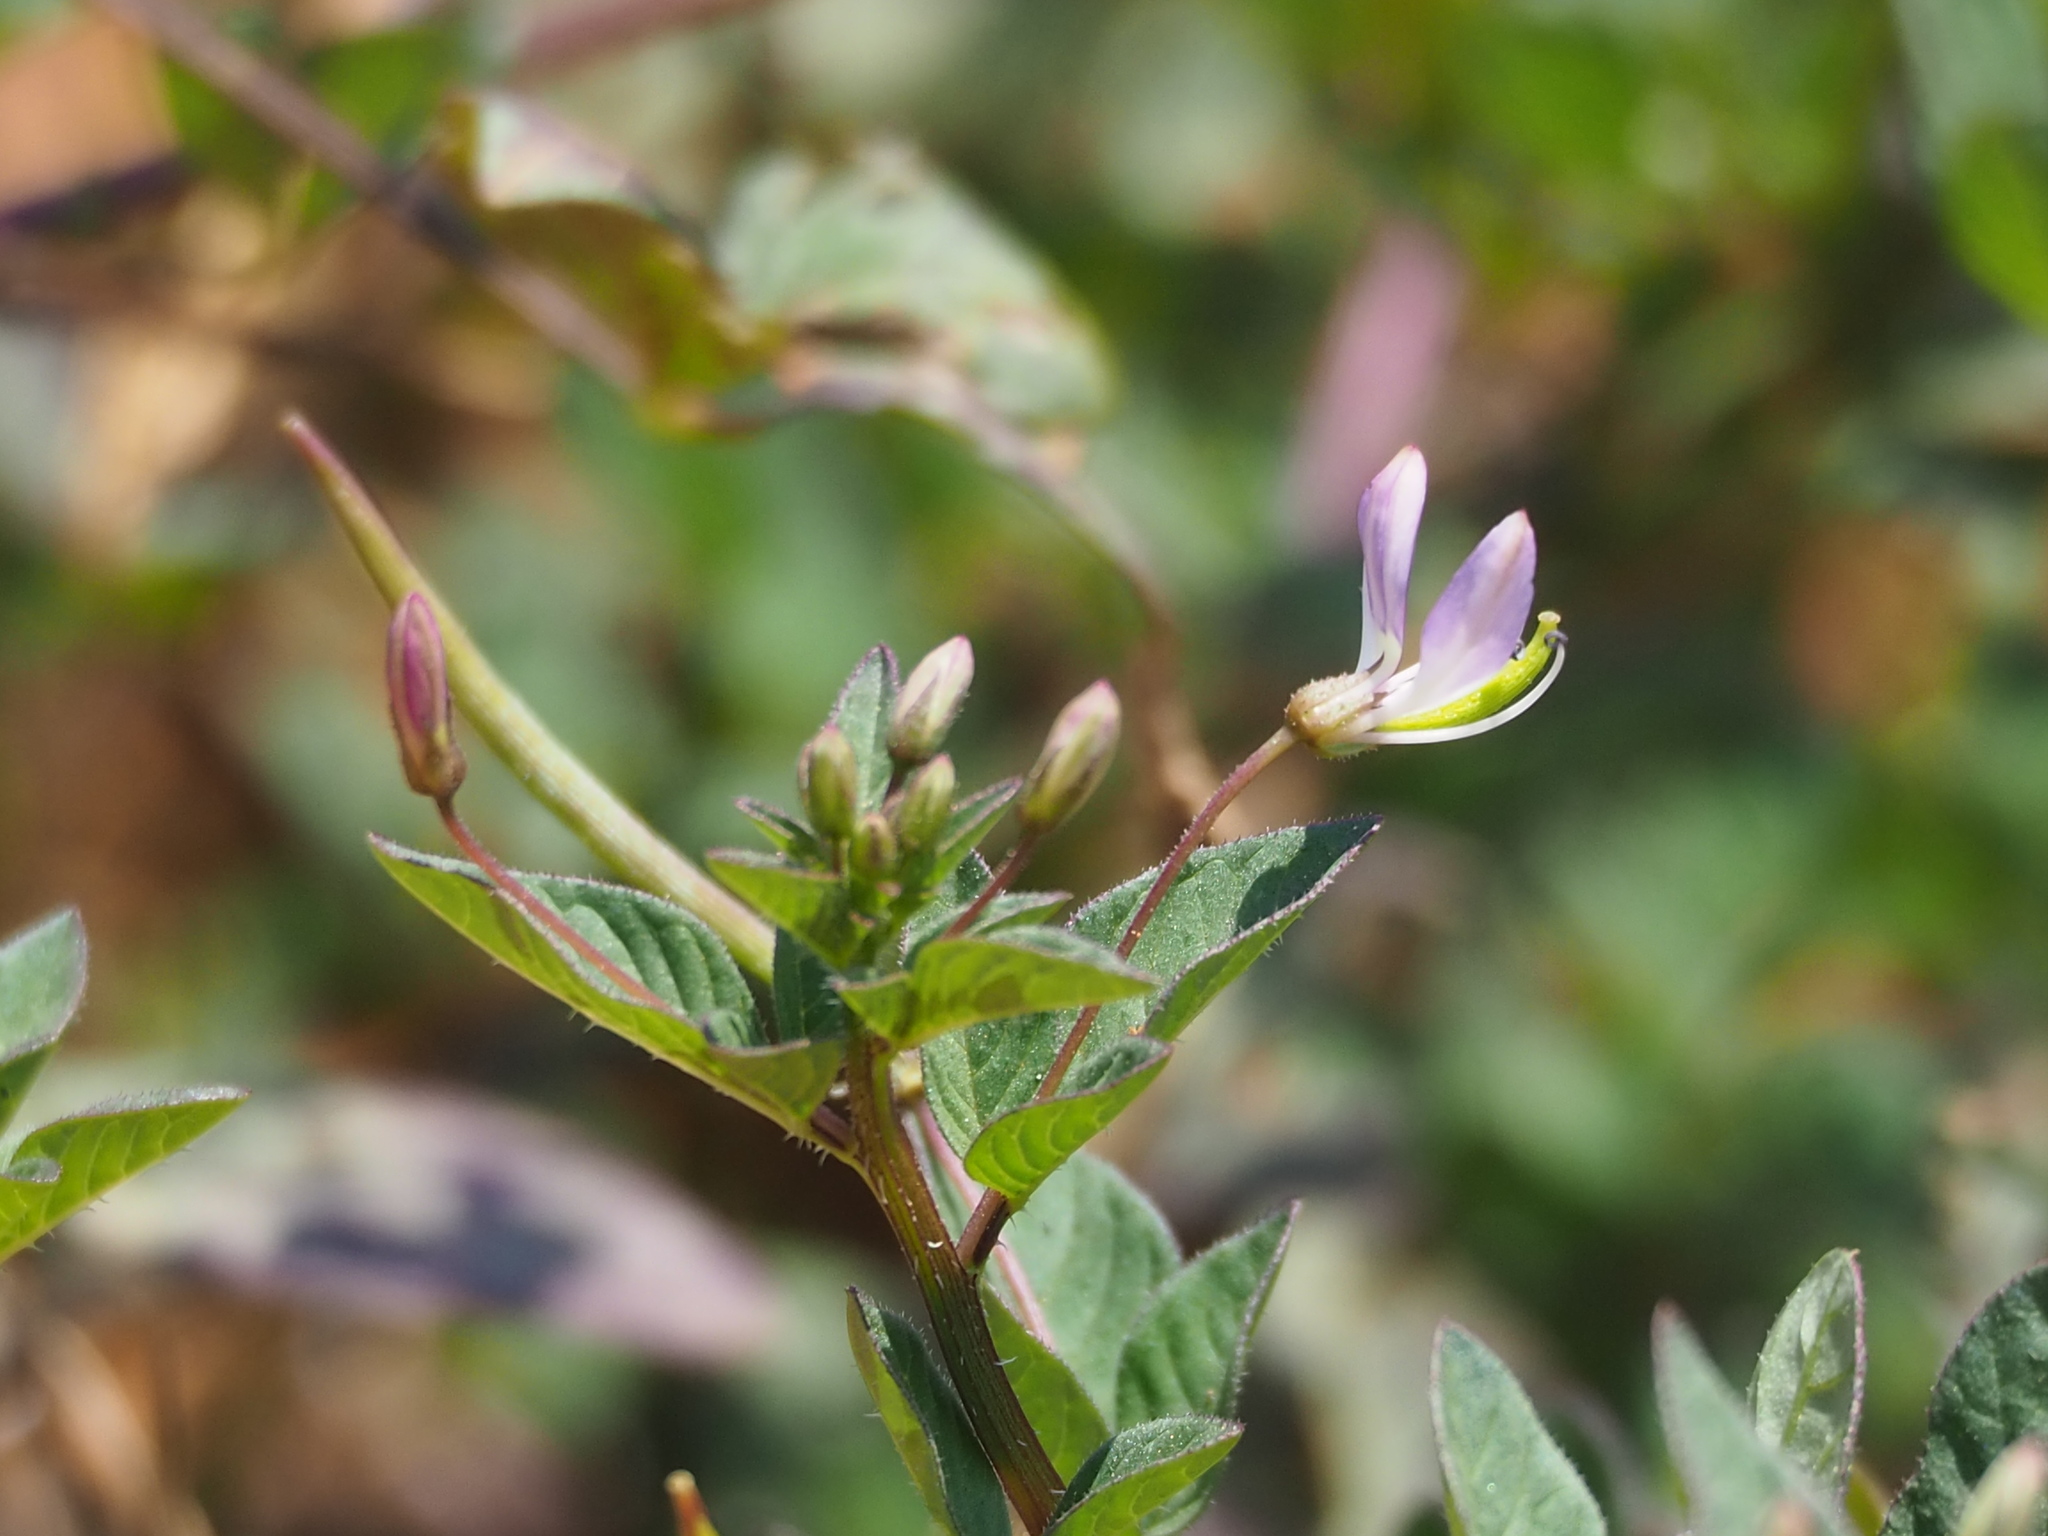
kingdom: Plantae
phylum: Tracheophyta
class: Magnoliopsida
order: Brassicales
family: Cleomaceae
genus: Sieruela
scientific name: Sieruela rutidosperma
